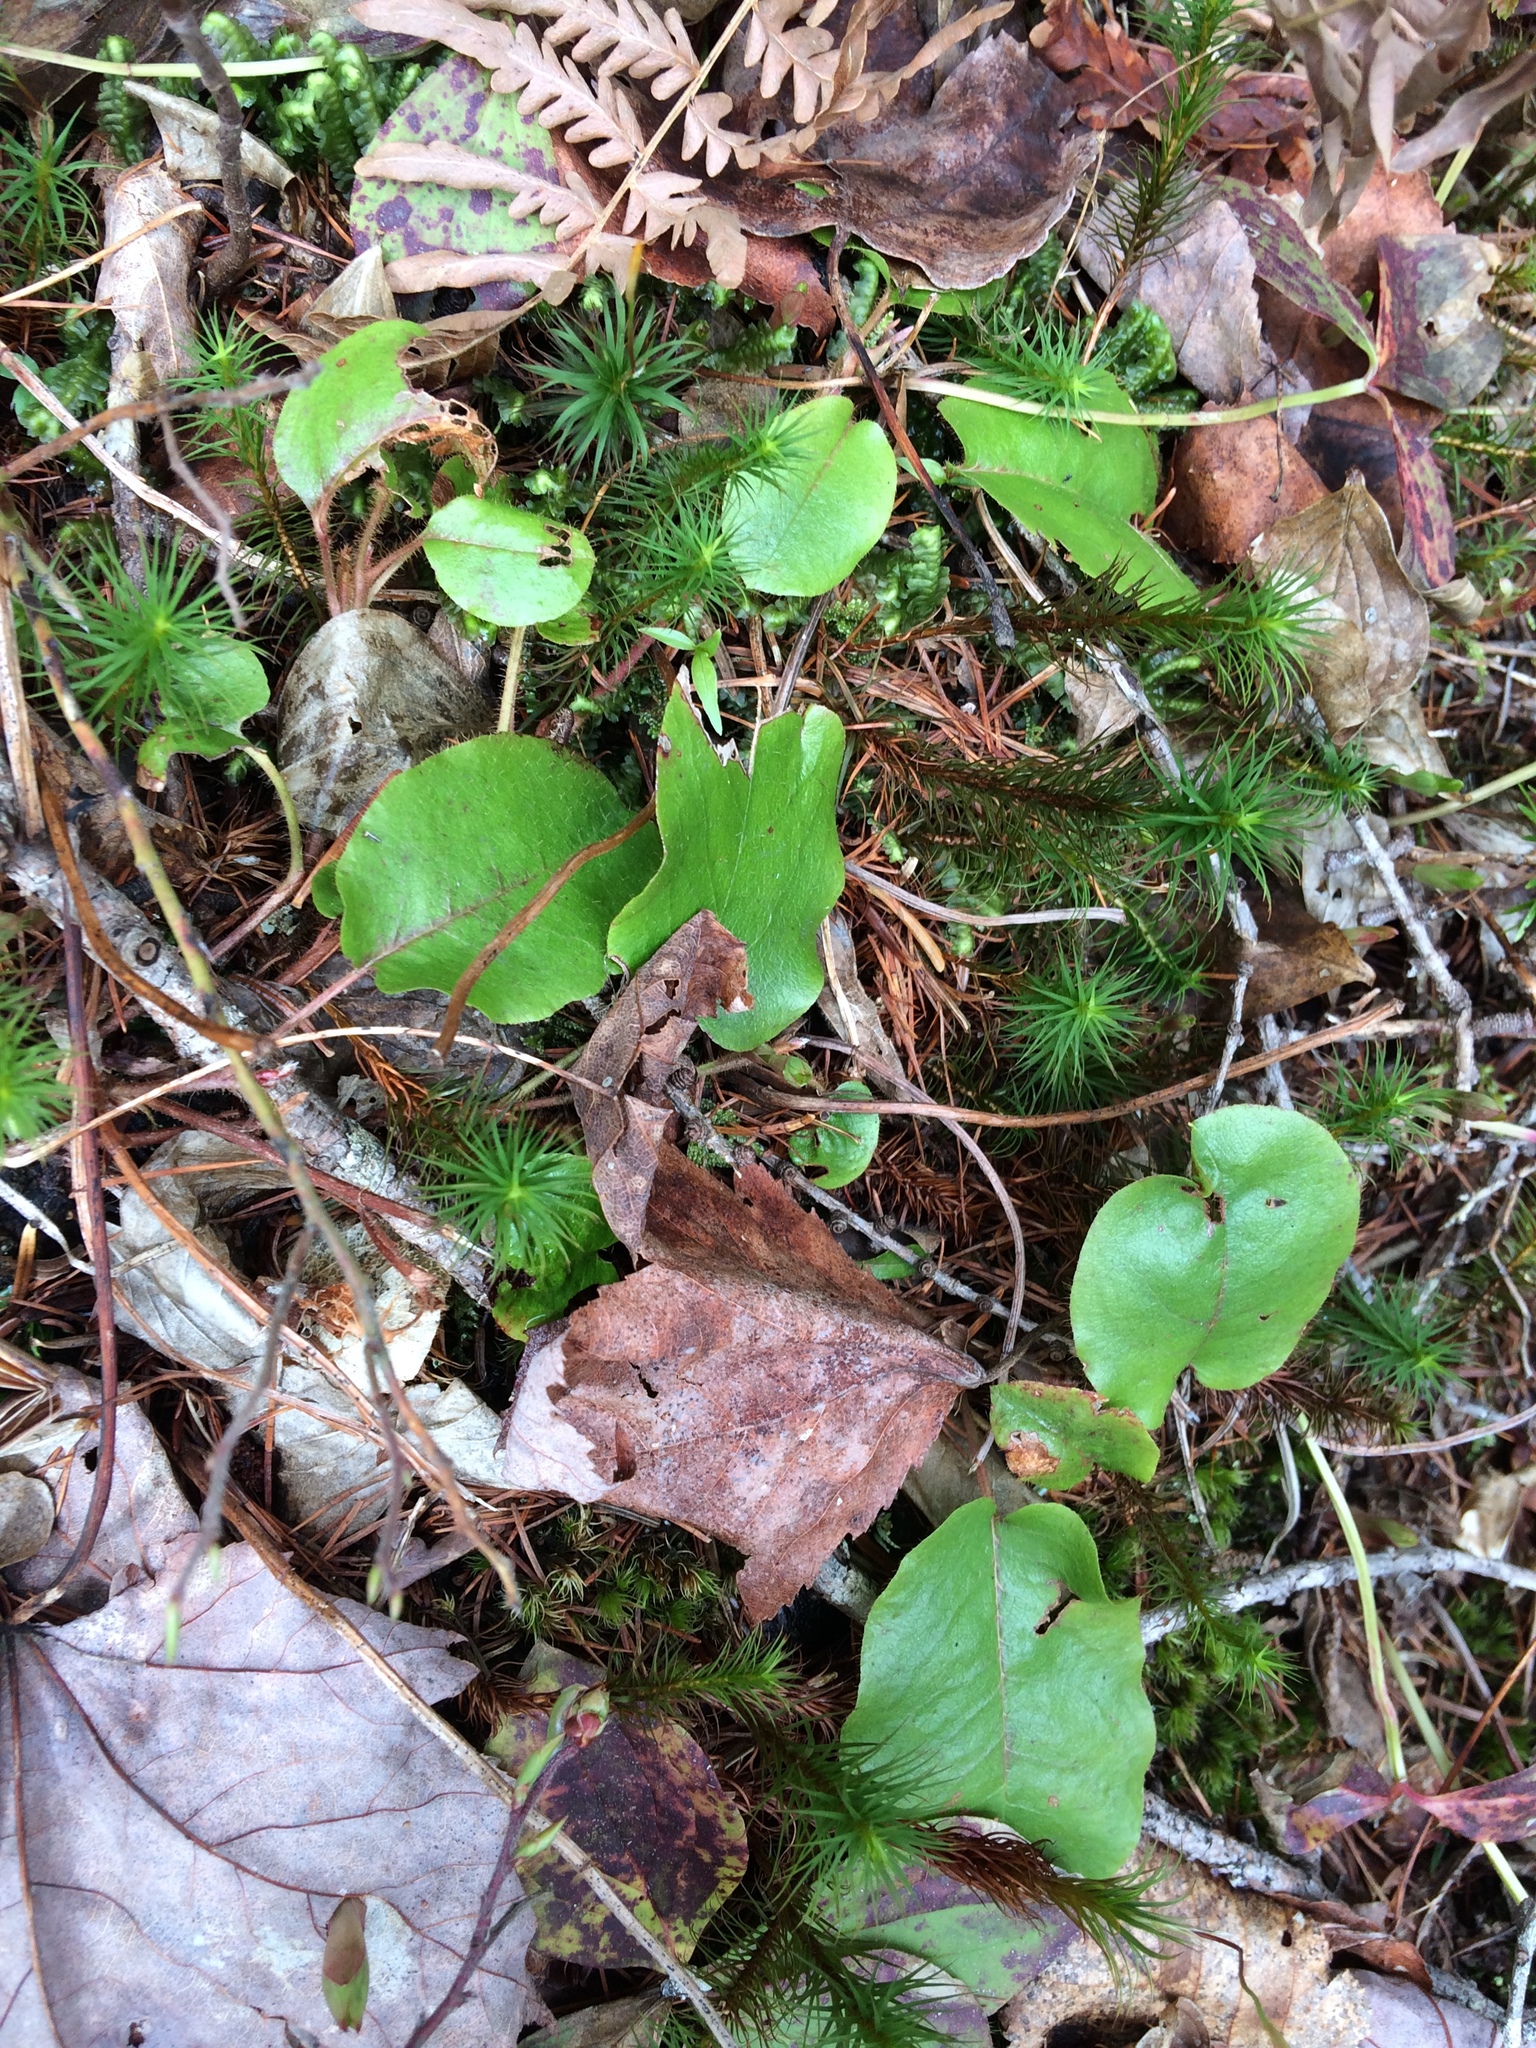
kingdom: Plantae
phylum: Tracheophyta
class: Magnoliopsida
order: Ericales
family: Ericaceae
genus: Epigaea
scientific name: Epigaea repens
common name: Gravelroot
